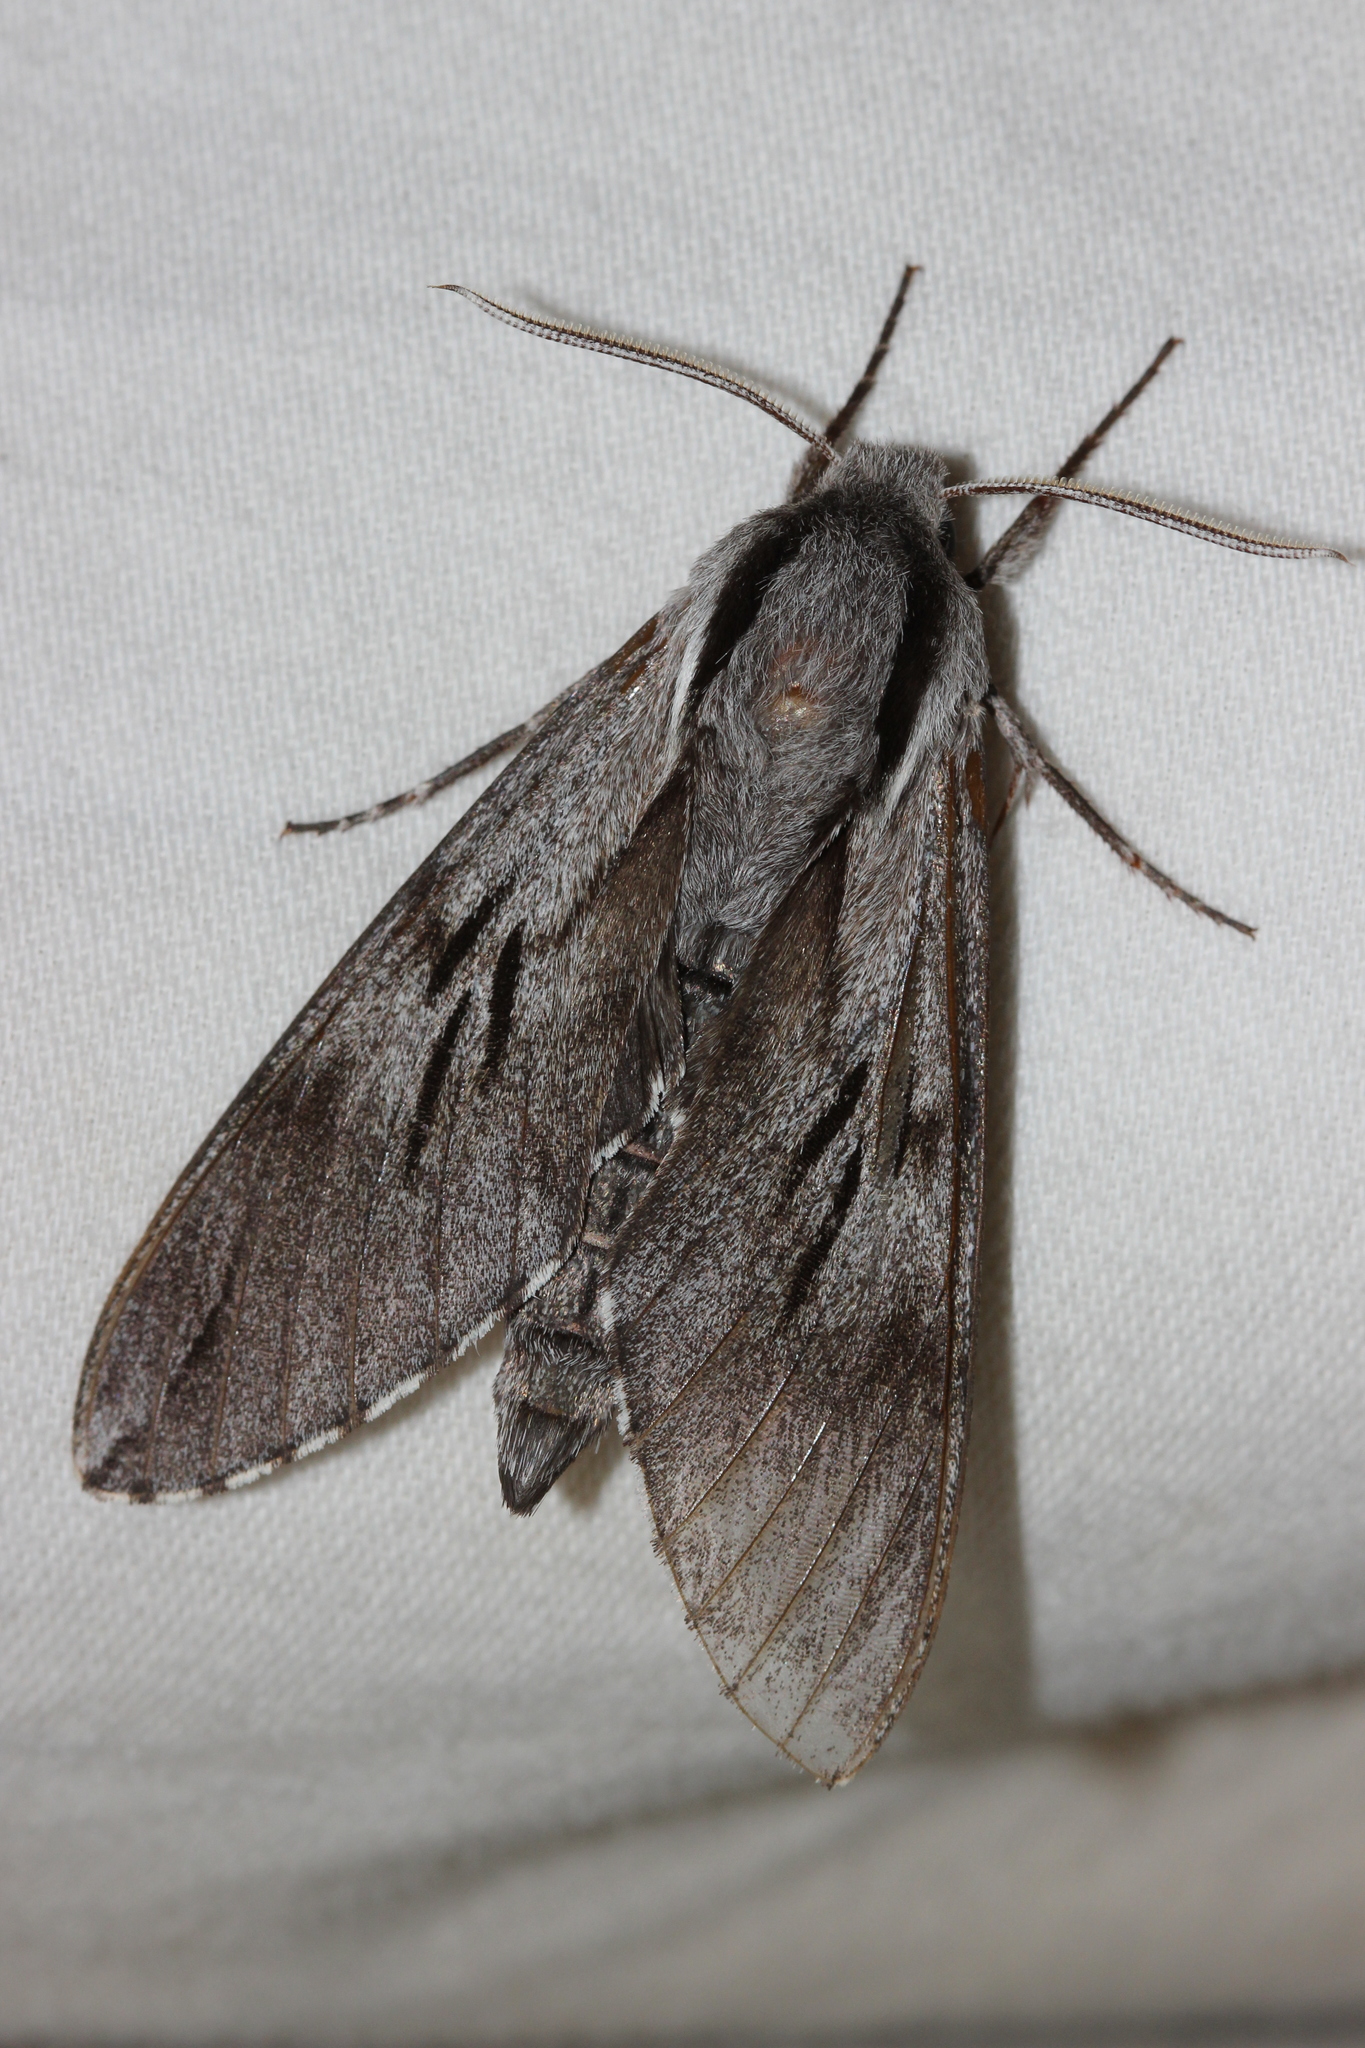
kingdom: Animalia
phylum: Arthropoda
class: Insecta
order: Lepidoptera
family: Sphingidae
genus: Sphinx
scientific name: Sphinx
